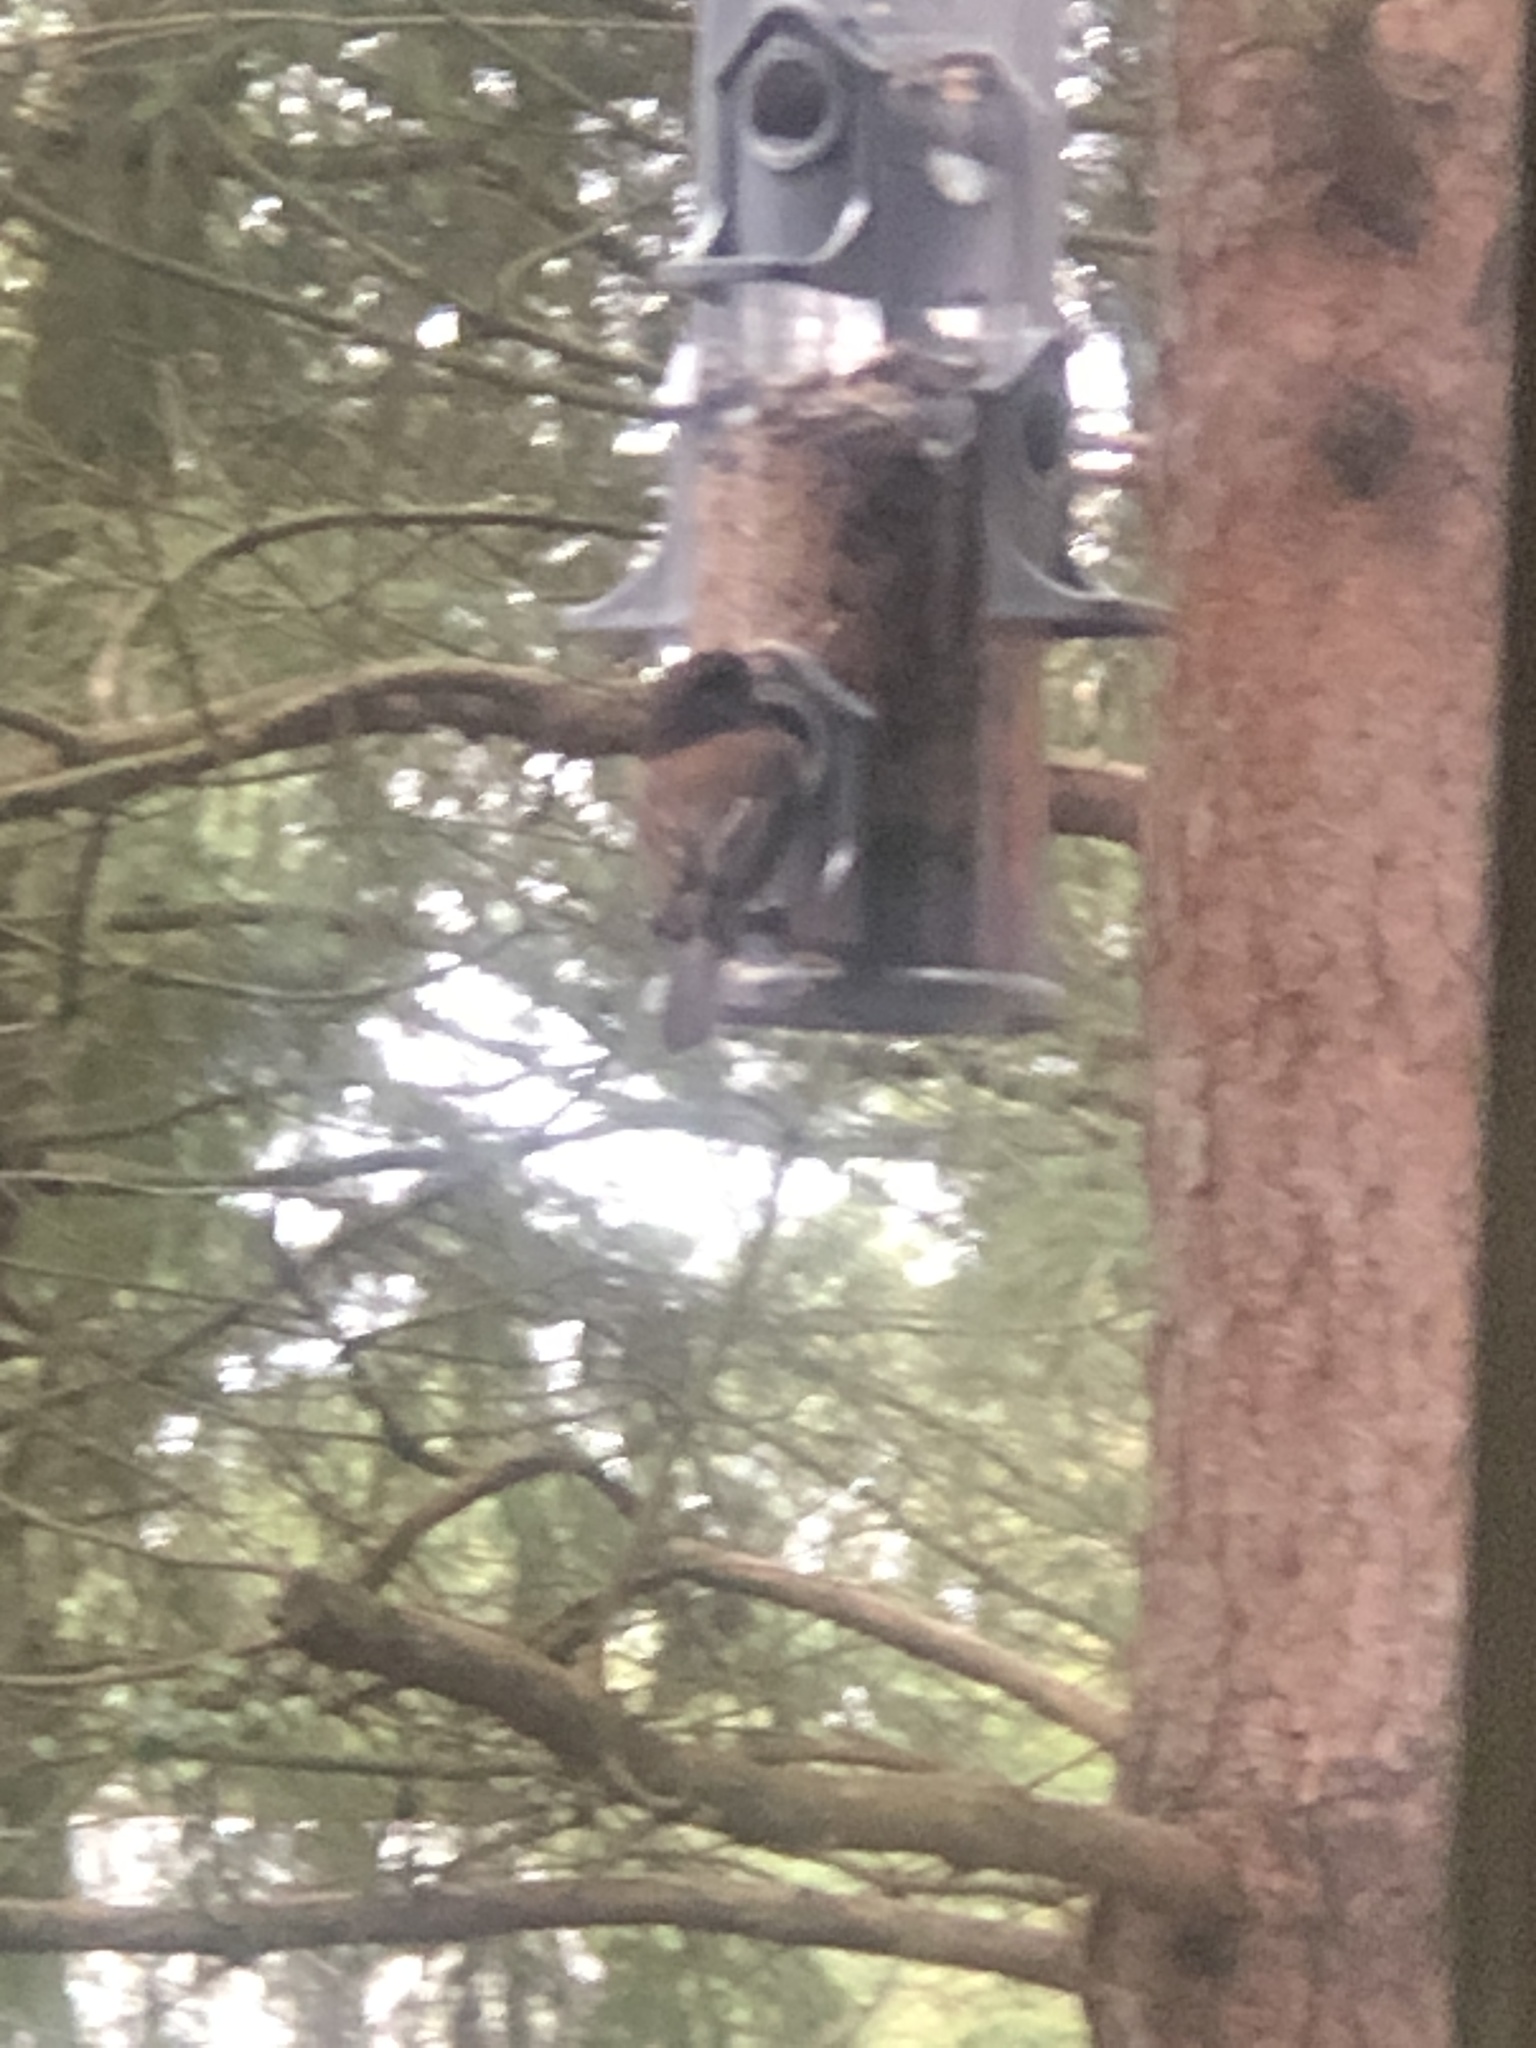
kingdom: Animalia
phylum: Chordata
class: Aves
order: Passeriformes
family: Passerellidae
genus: Junco
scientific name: Junco hyemalis
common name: Dark-eyed junco
